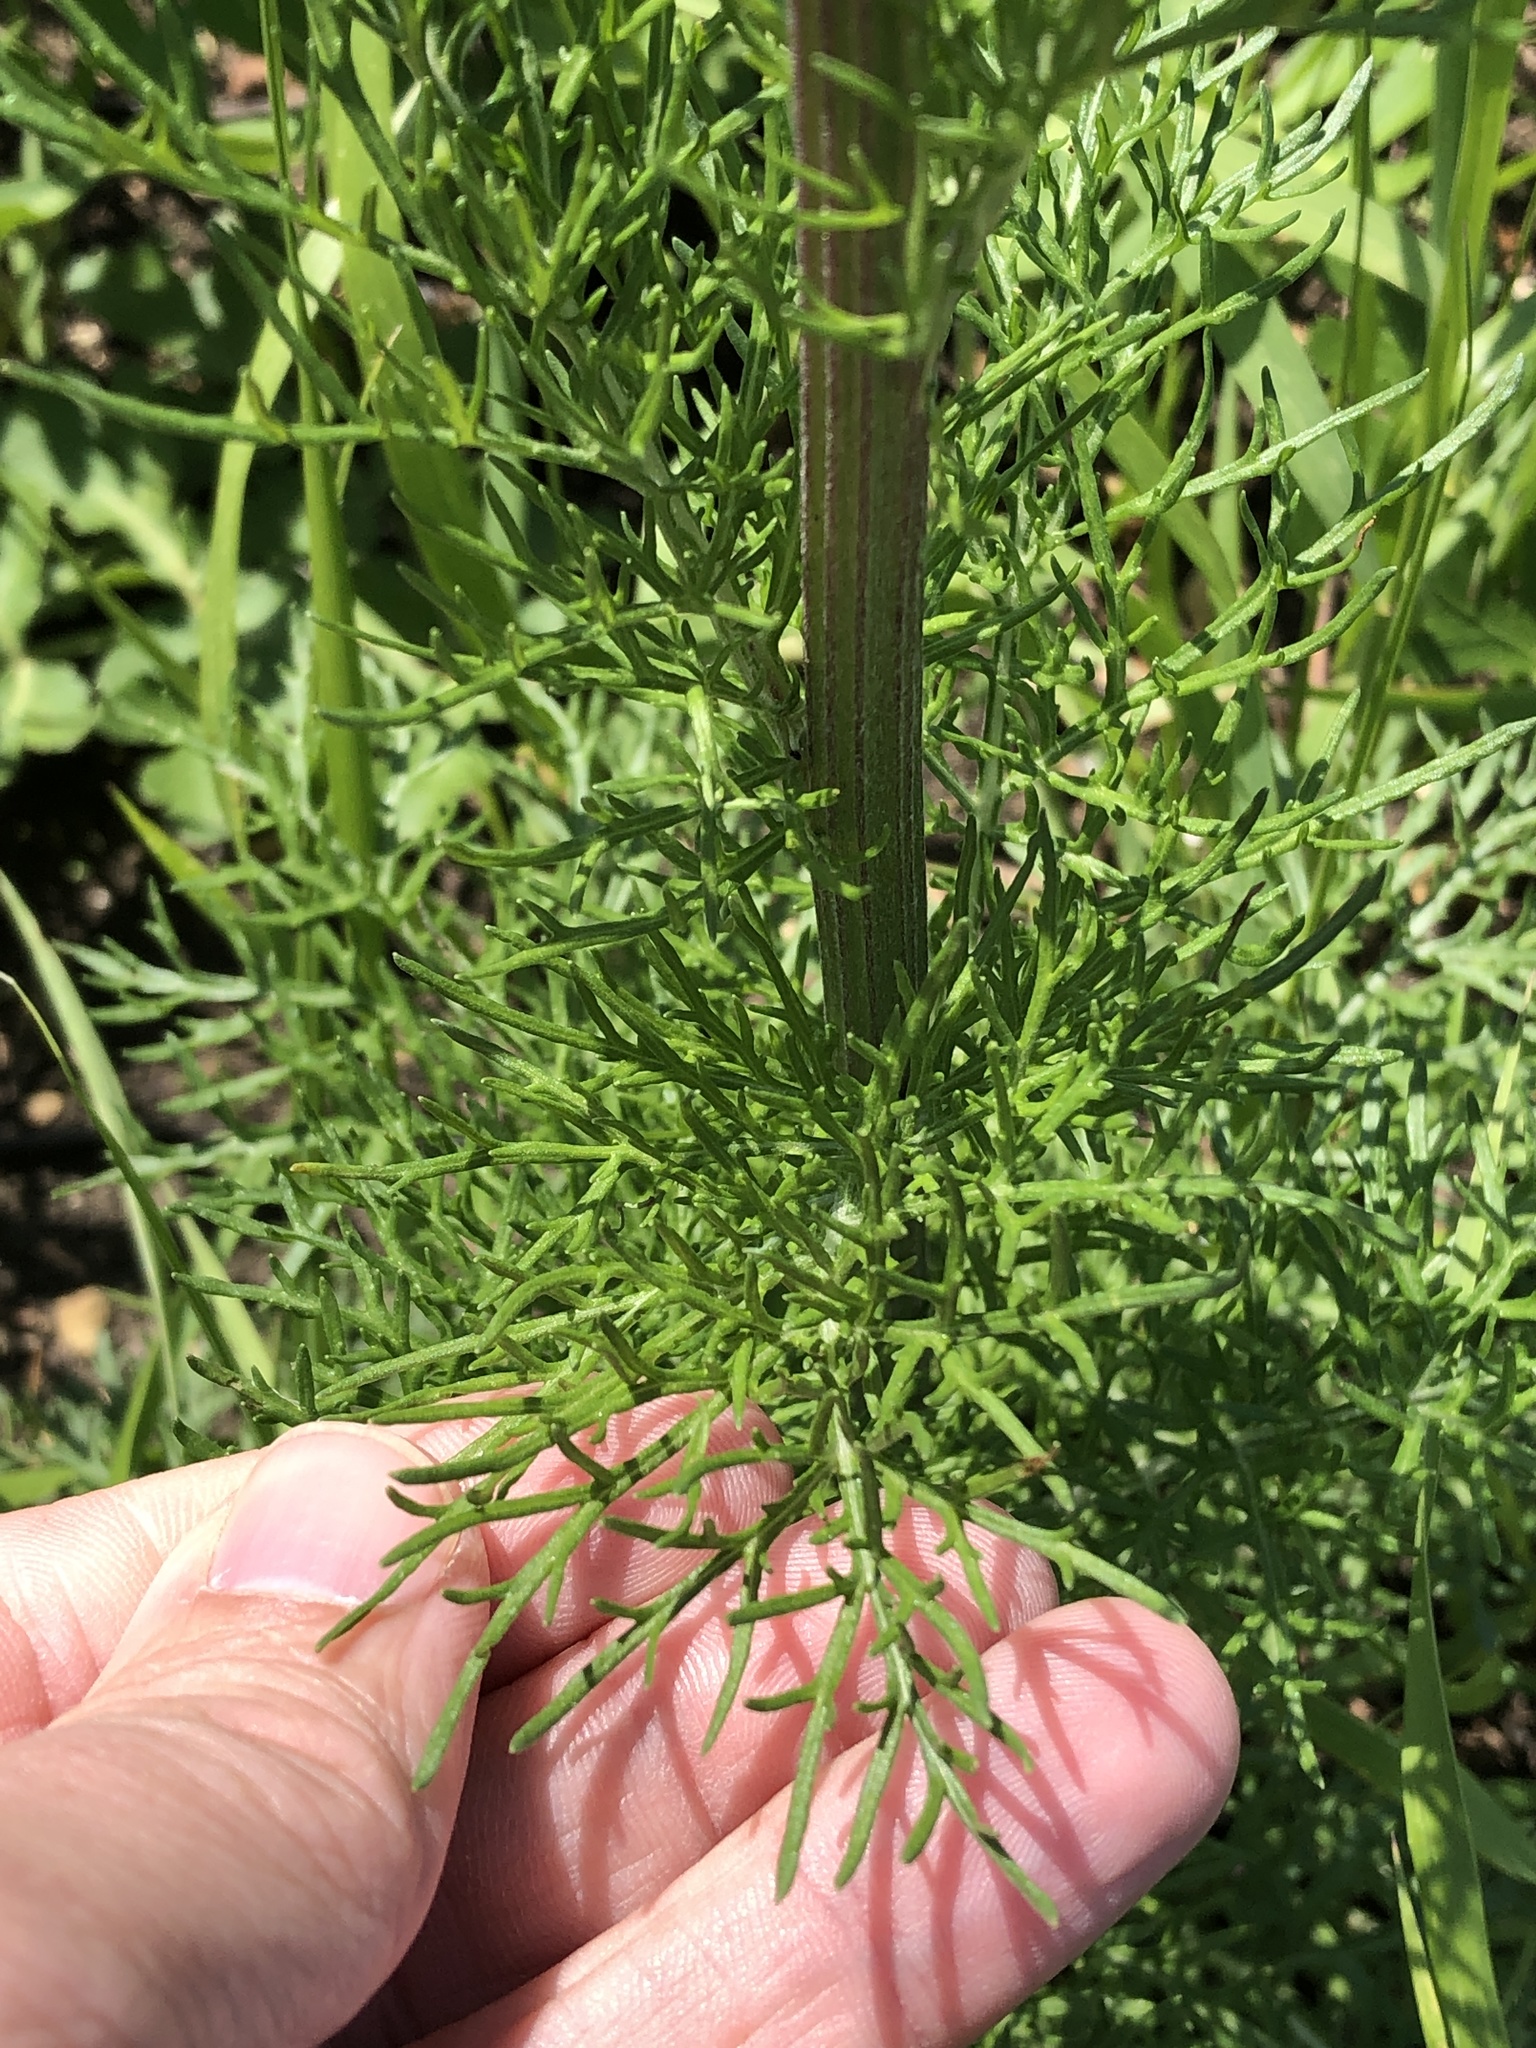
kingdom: Plantae
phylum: Tracheophyta
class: Magnoliopsida
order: Asterales
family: Asteraceae
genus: Hymenopappus
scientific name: Hymenopappus scabiosaeus
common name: Carolina woollywhite
